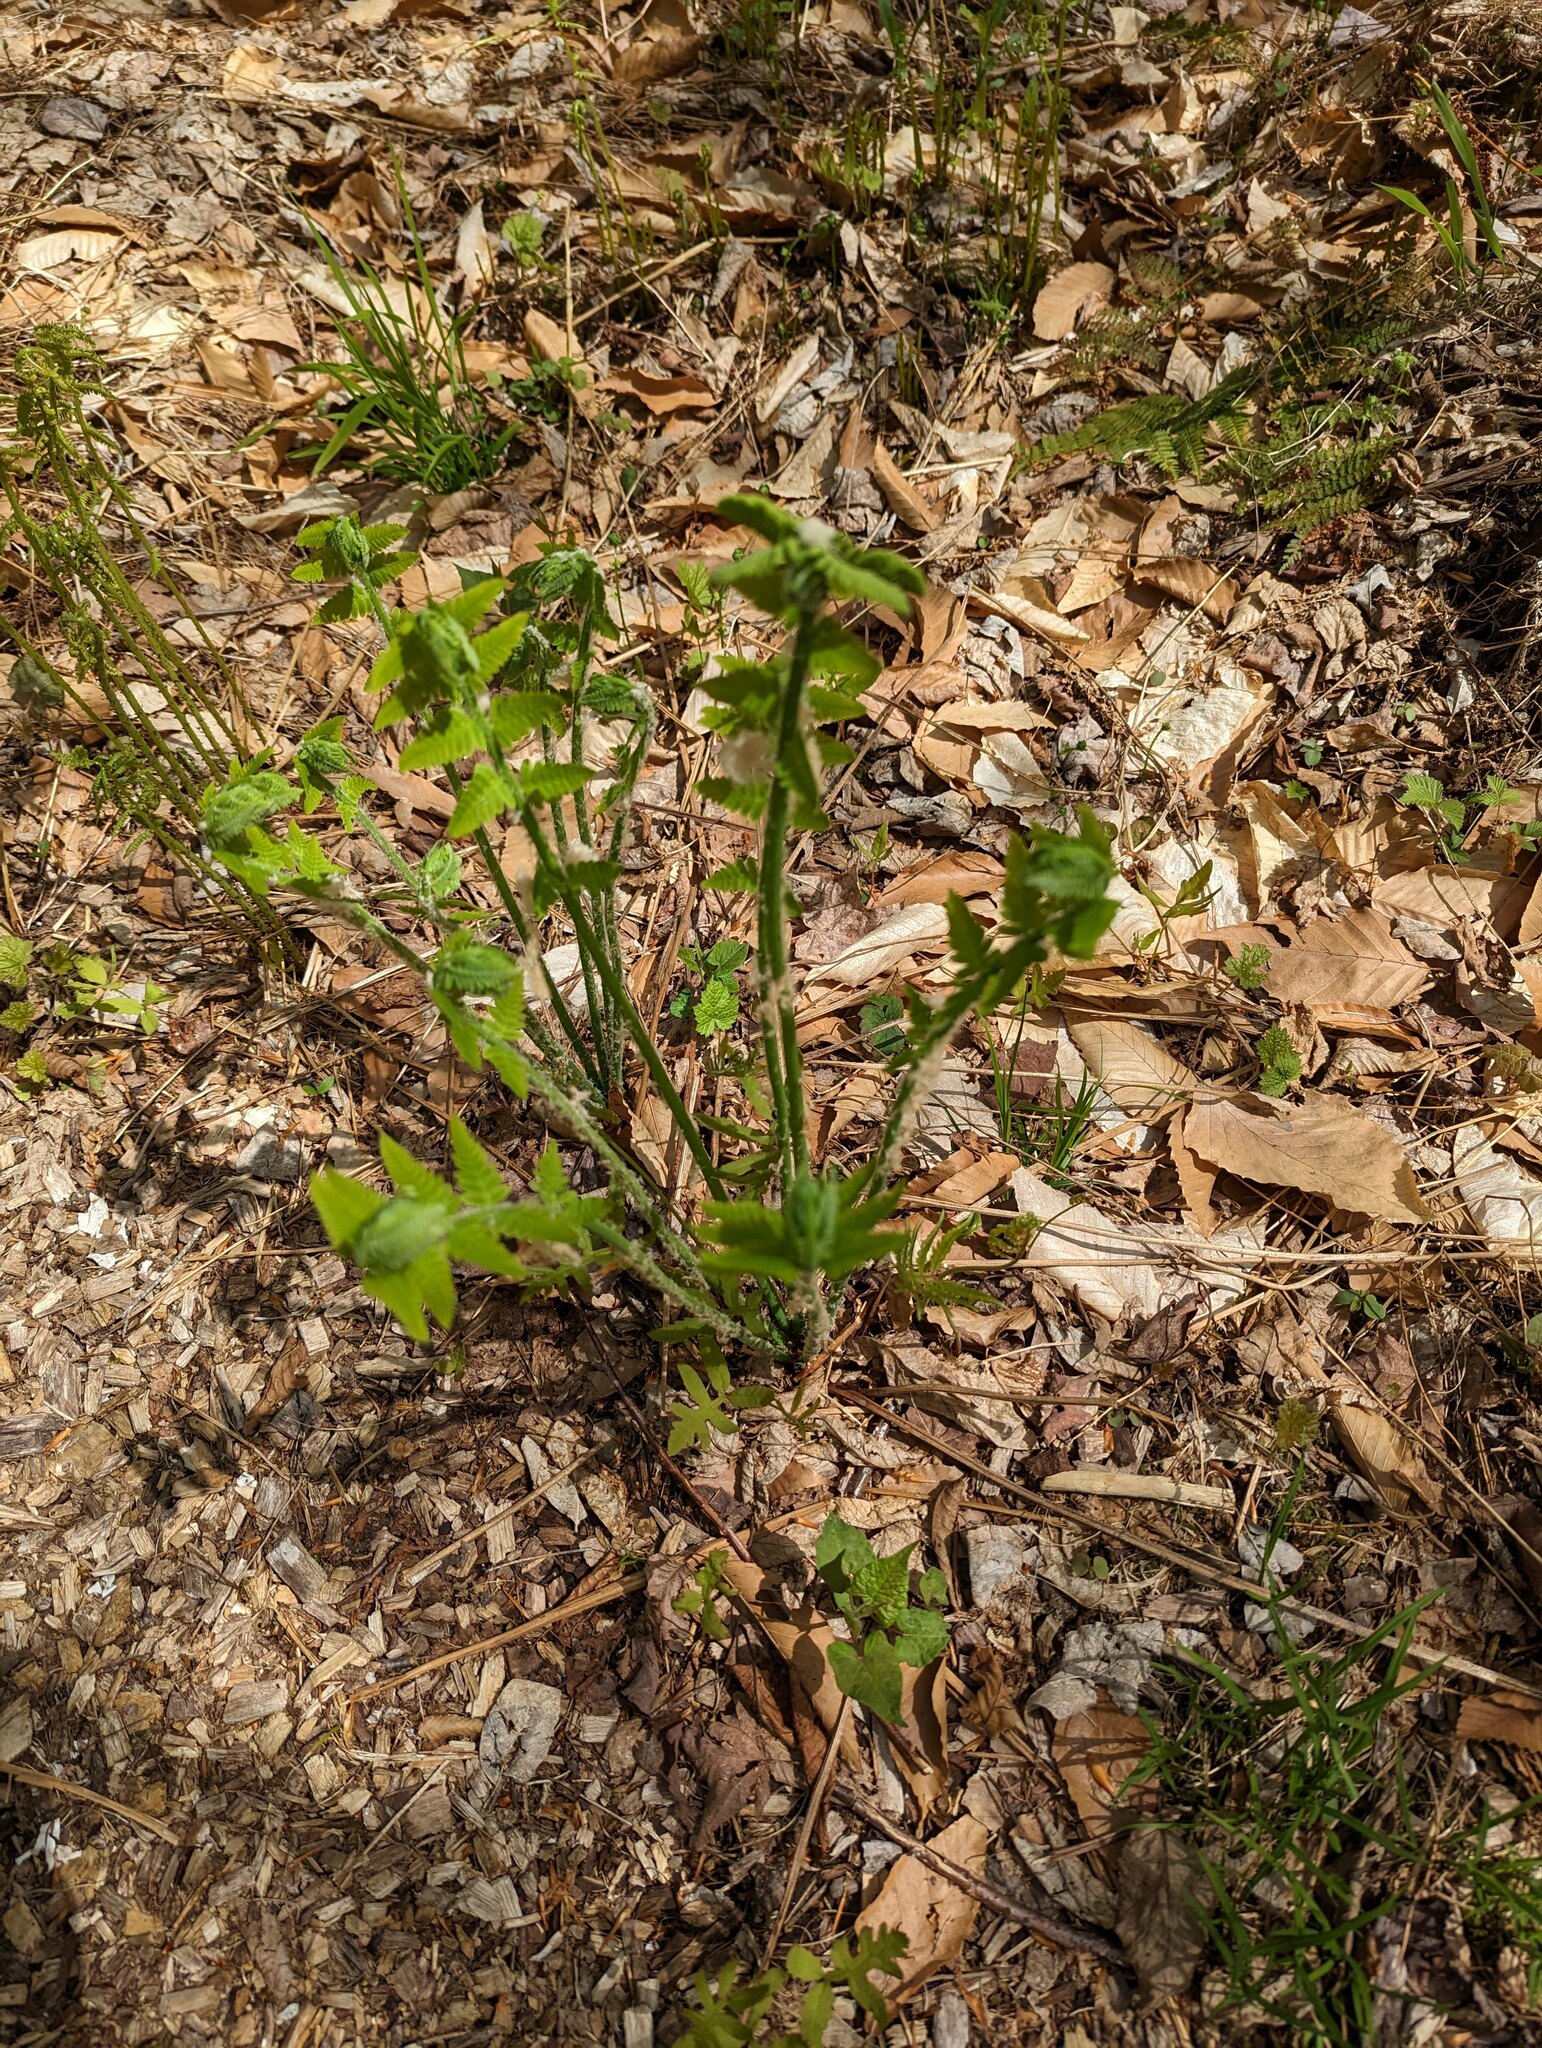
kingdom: Plantae
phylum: Tracheophyta
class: Polypodiopsida
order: Osmundales
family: Osmundaceae
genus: Claytosmunda
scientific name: Claytosmunda claytoniana
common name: Clayton's fern
